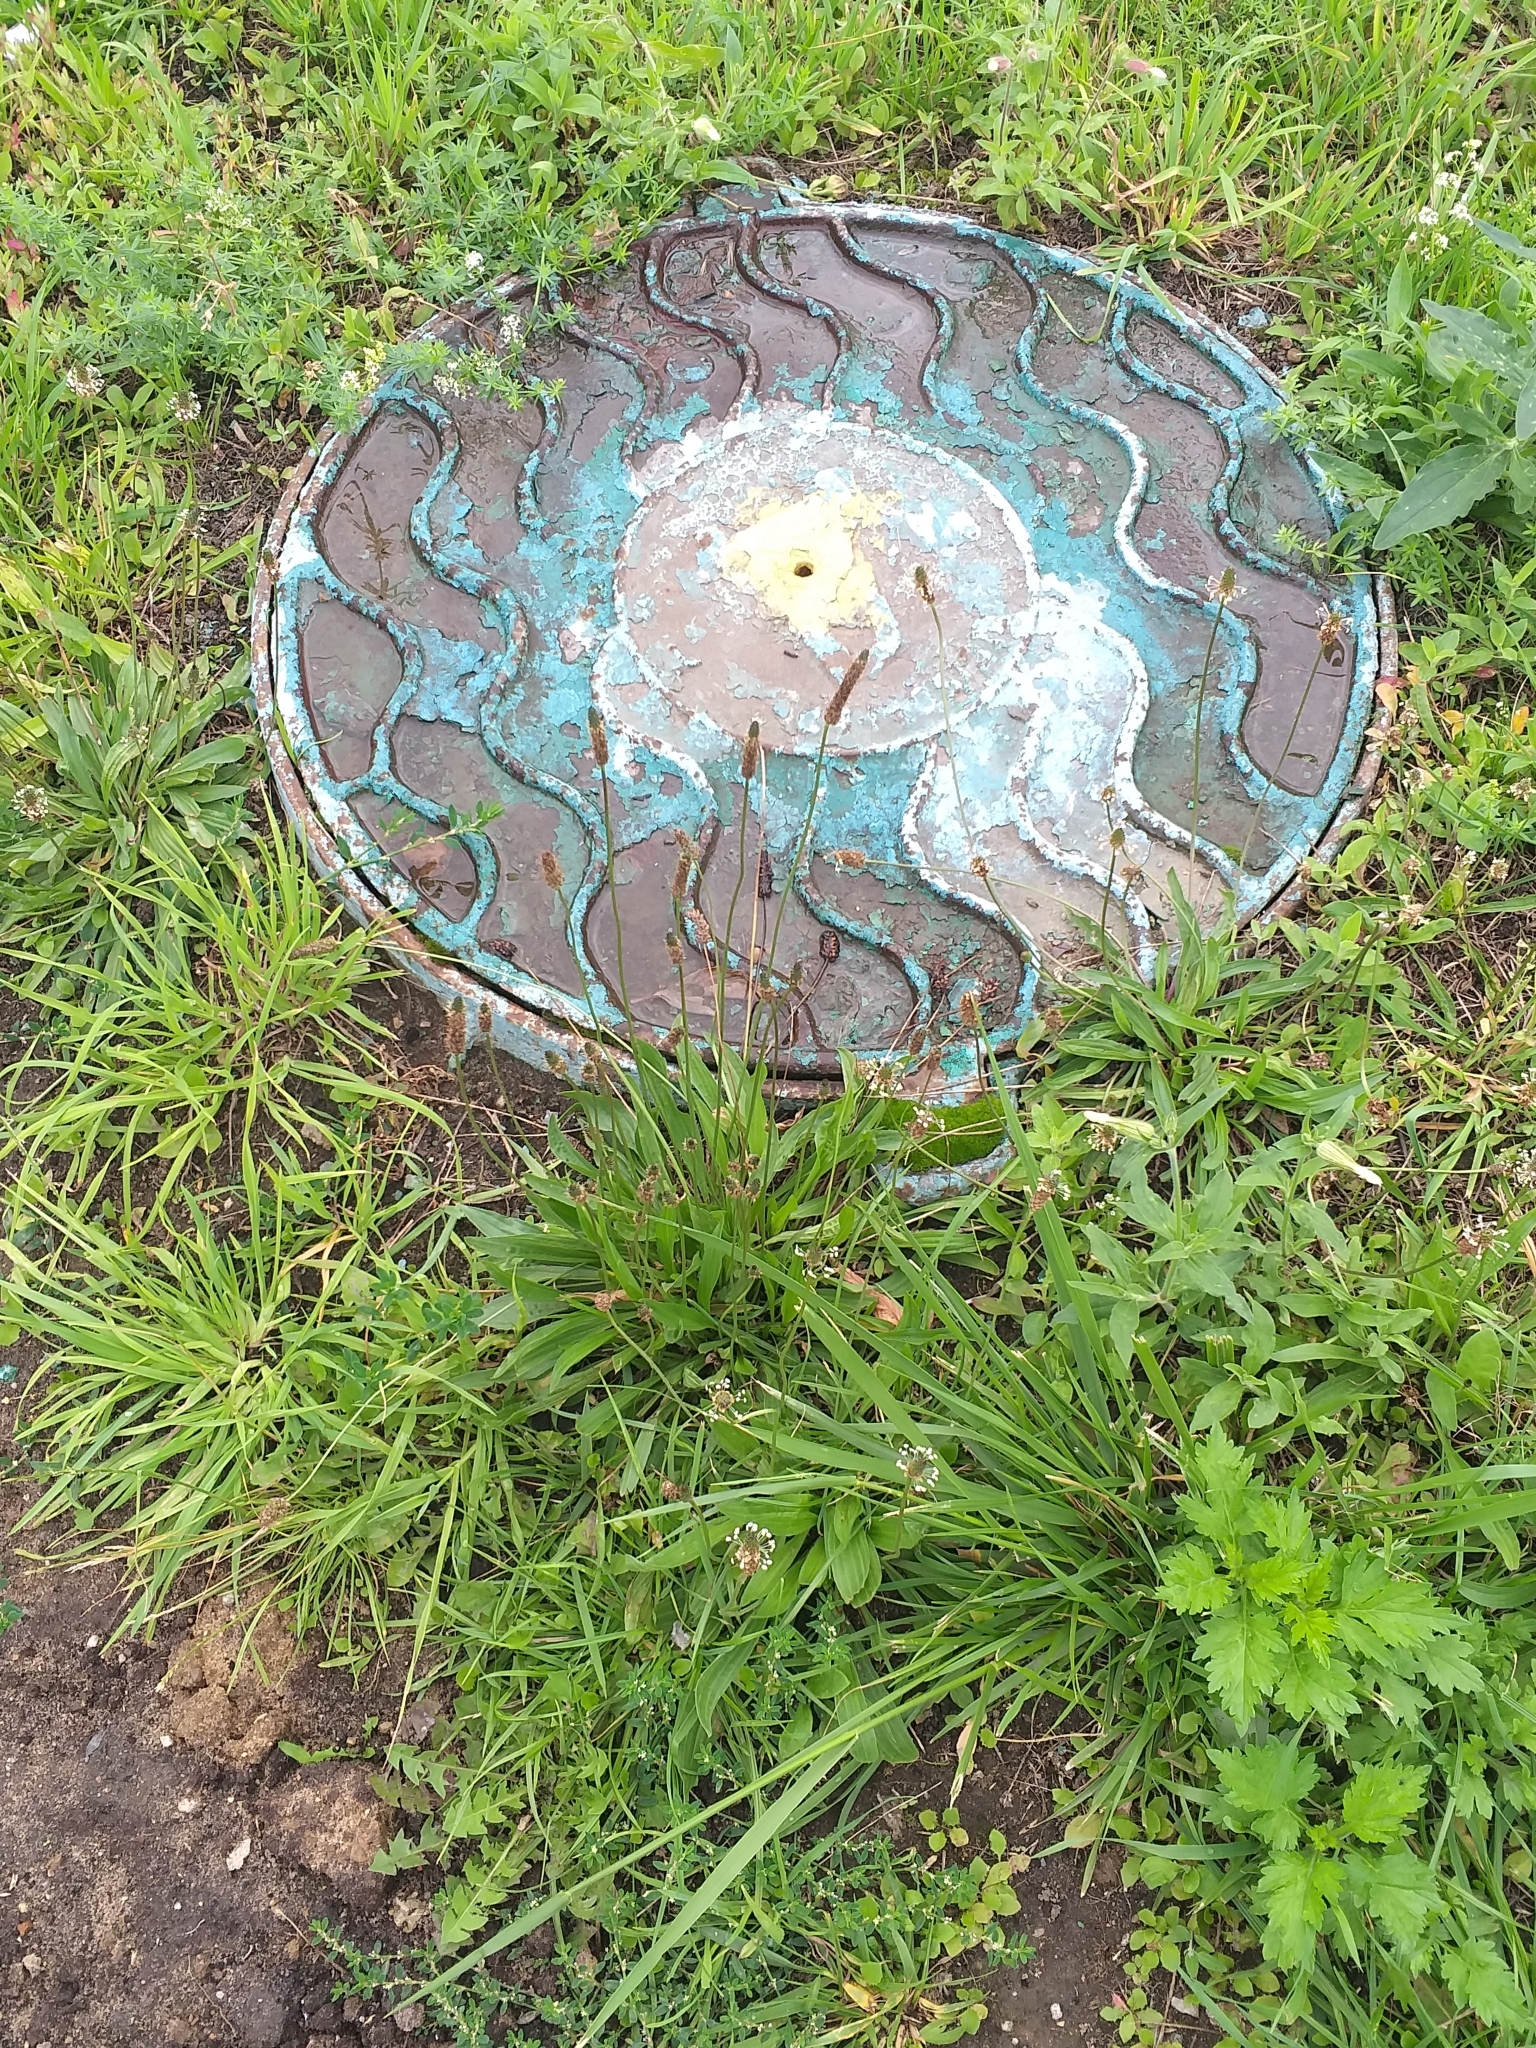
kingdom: Plantae
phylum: Tracheophyta
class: Magnoliopsida
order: Lamiales
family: Plantaginaceae
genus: Plantago
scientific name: Plantago lanceolata
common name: Ribwort plantain
